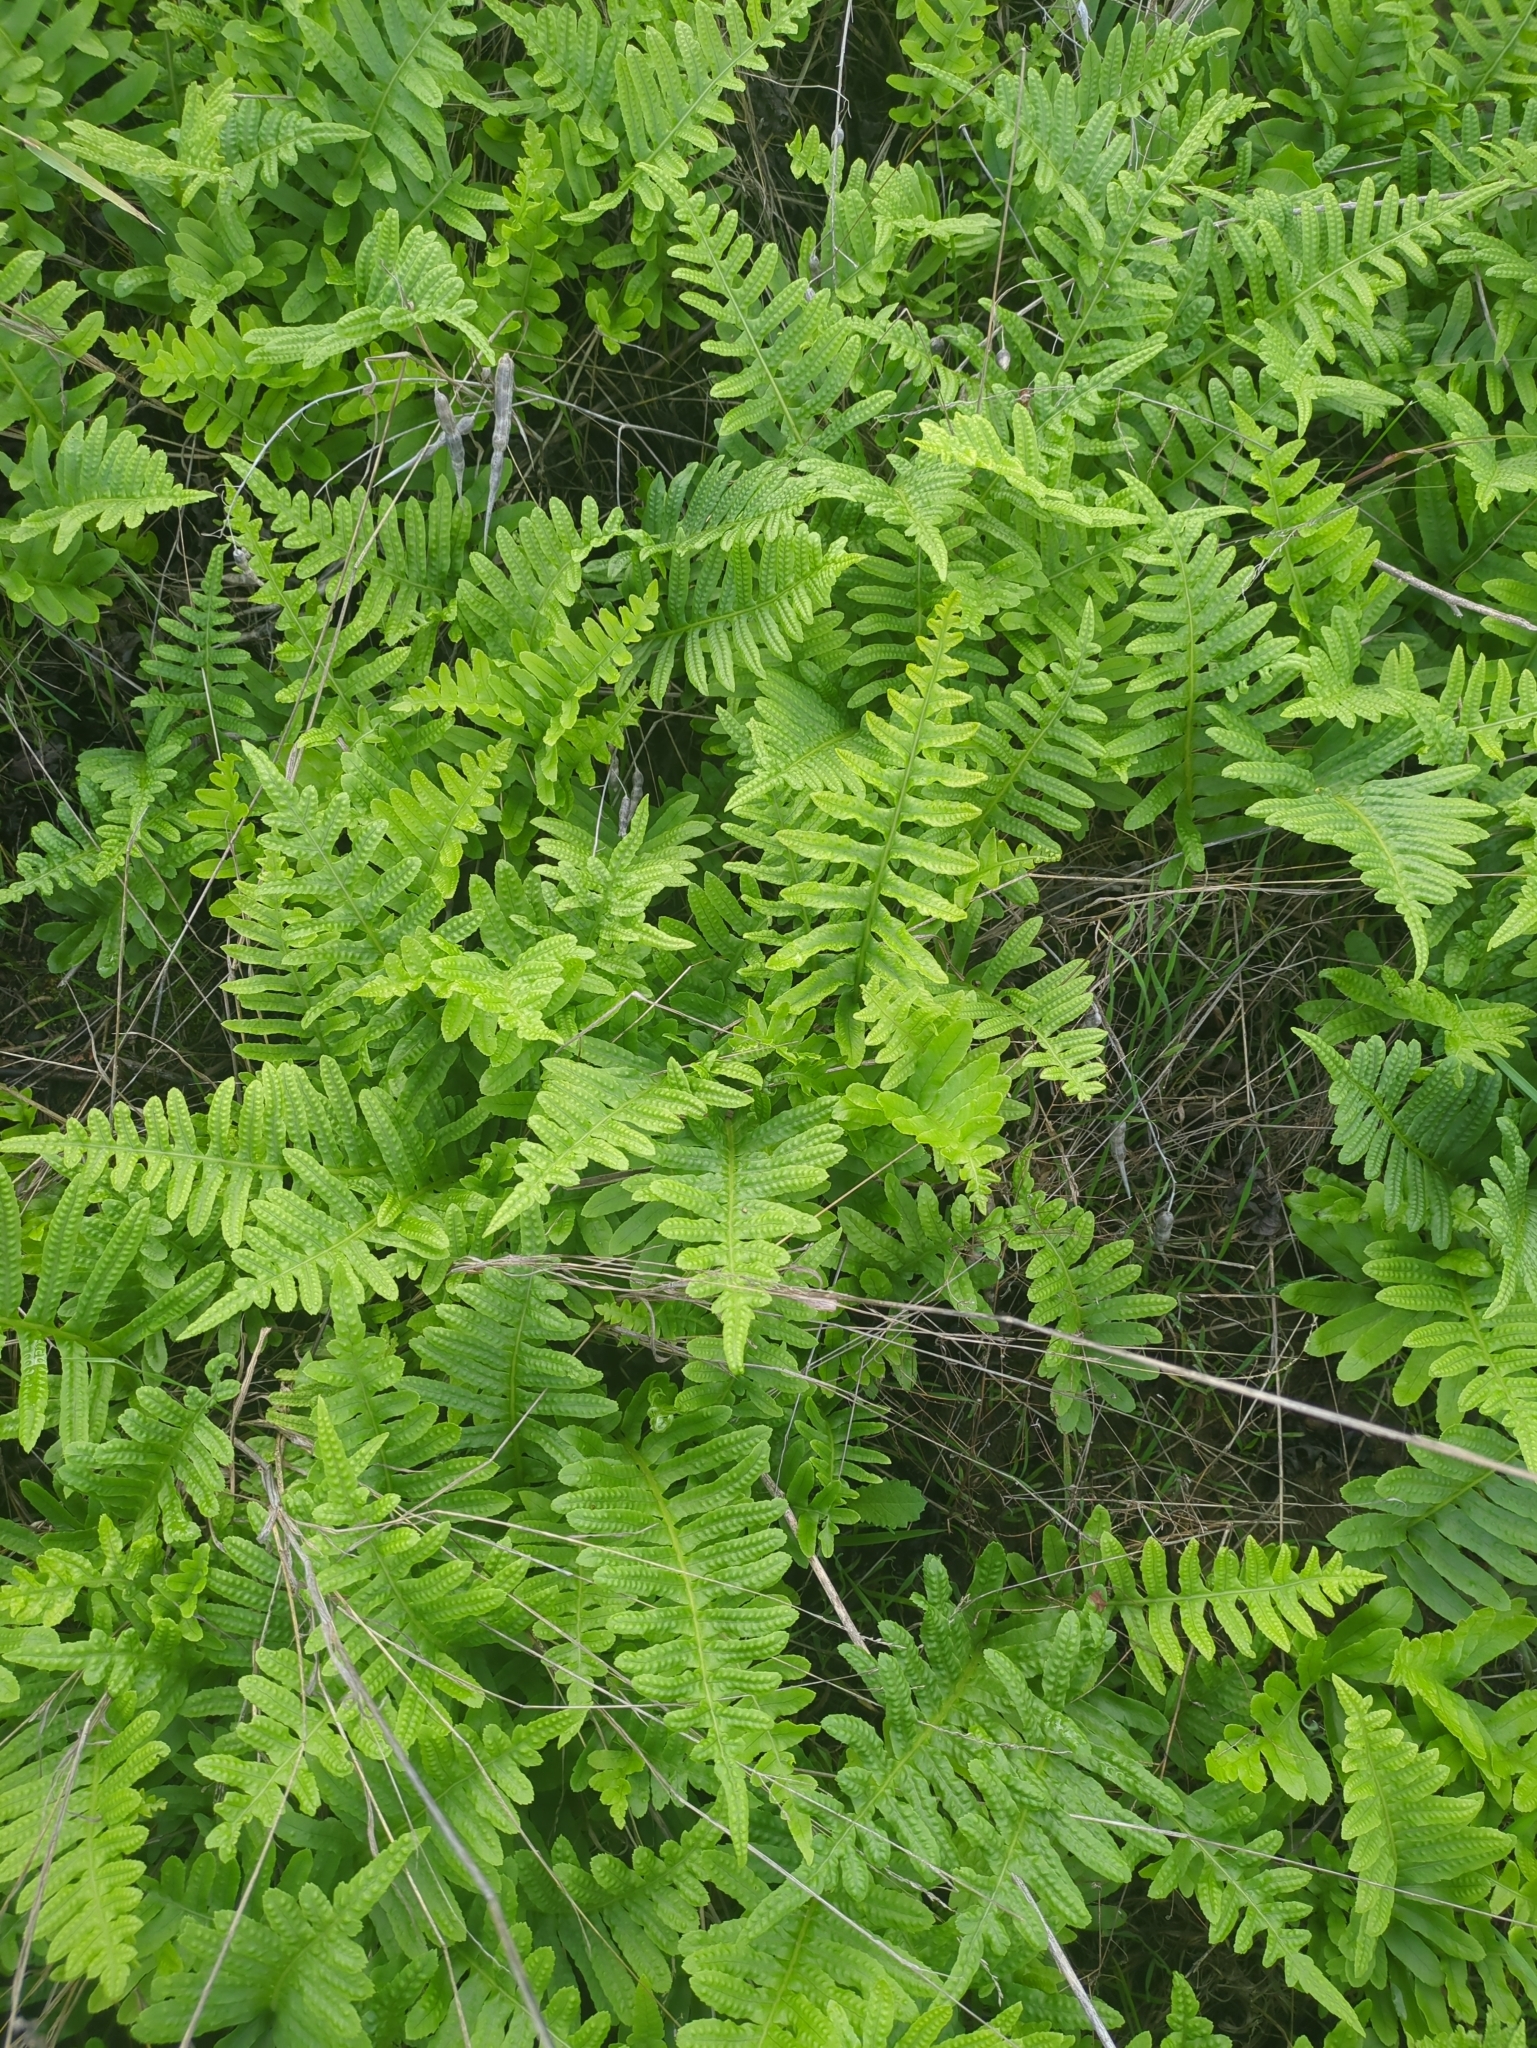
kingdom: Plantae
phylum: Tracheophyta
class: Polypodiopsida
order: Polypodiales
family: Polypodiaceae
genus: Polypodium
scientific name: Polypodium californicum
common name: California polypody
